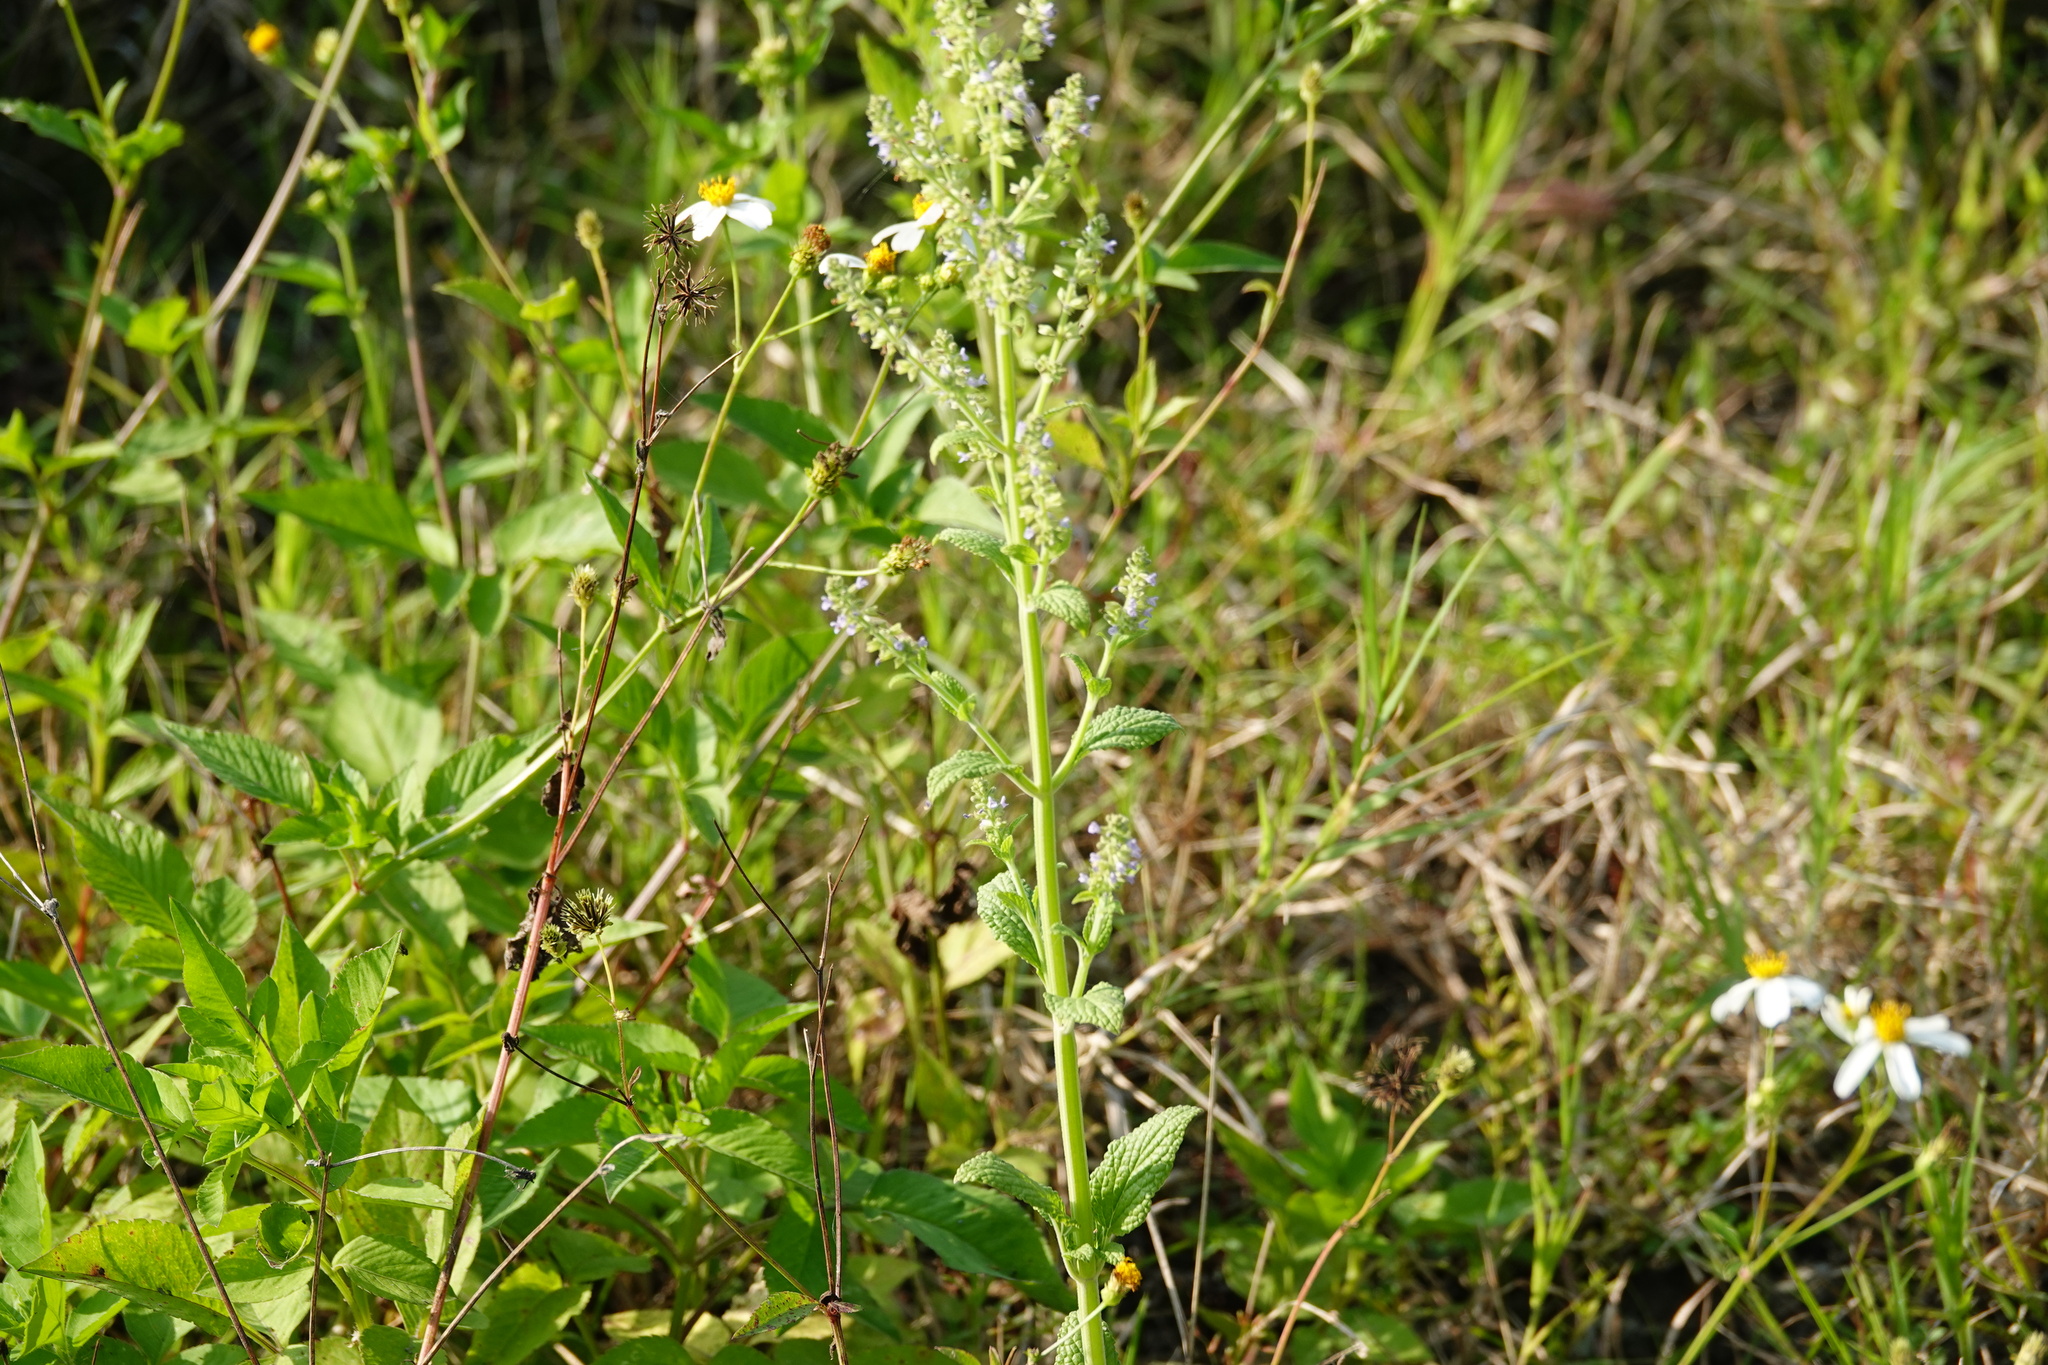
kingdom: Plantae
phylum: Tracheophyta
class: Magnoliopsida
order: Lamiales
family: Lamiaceae
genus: Salvia
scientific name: Salvia plebeia
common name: Australian sage
